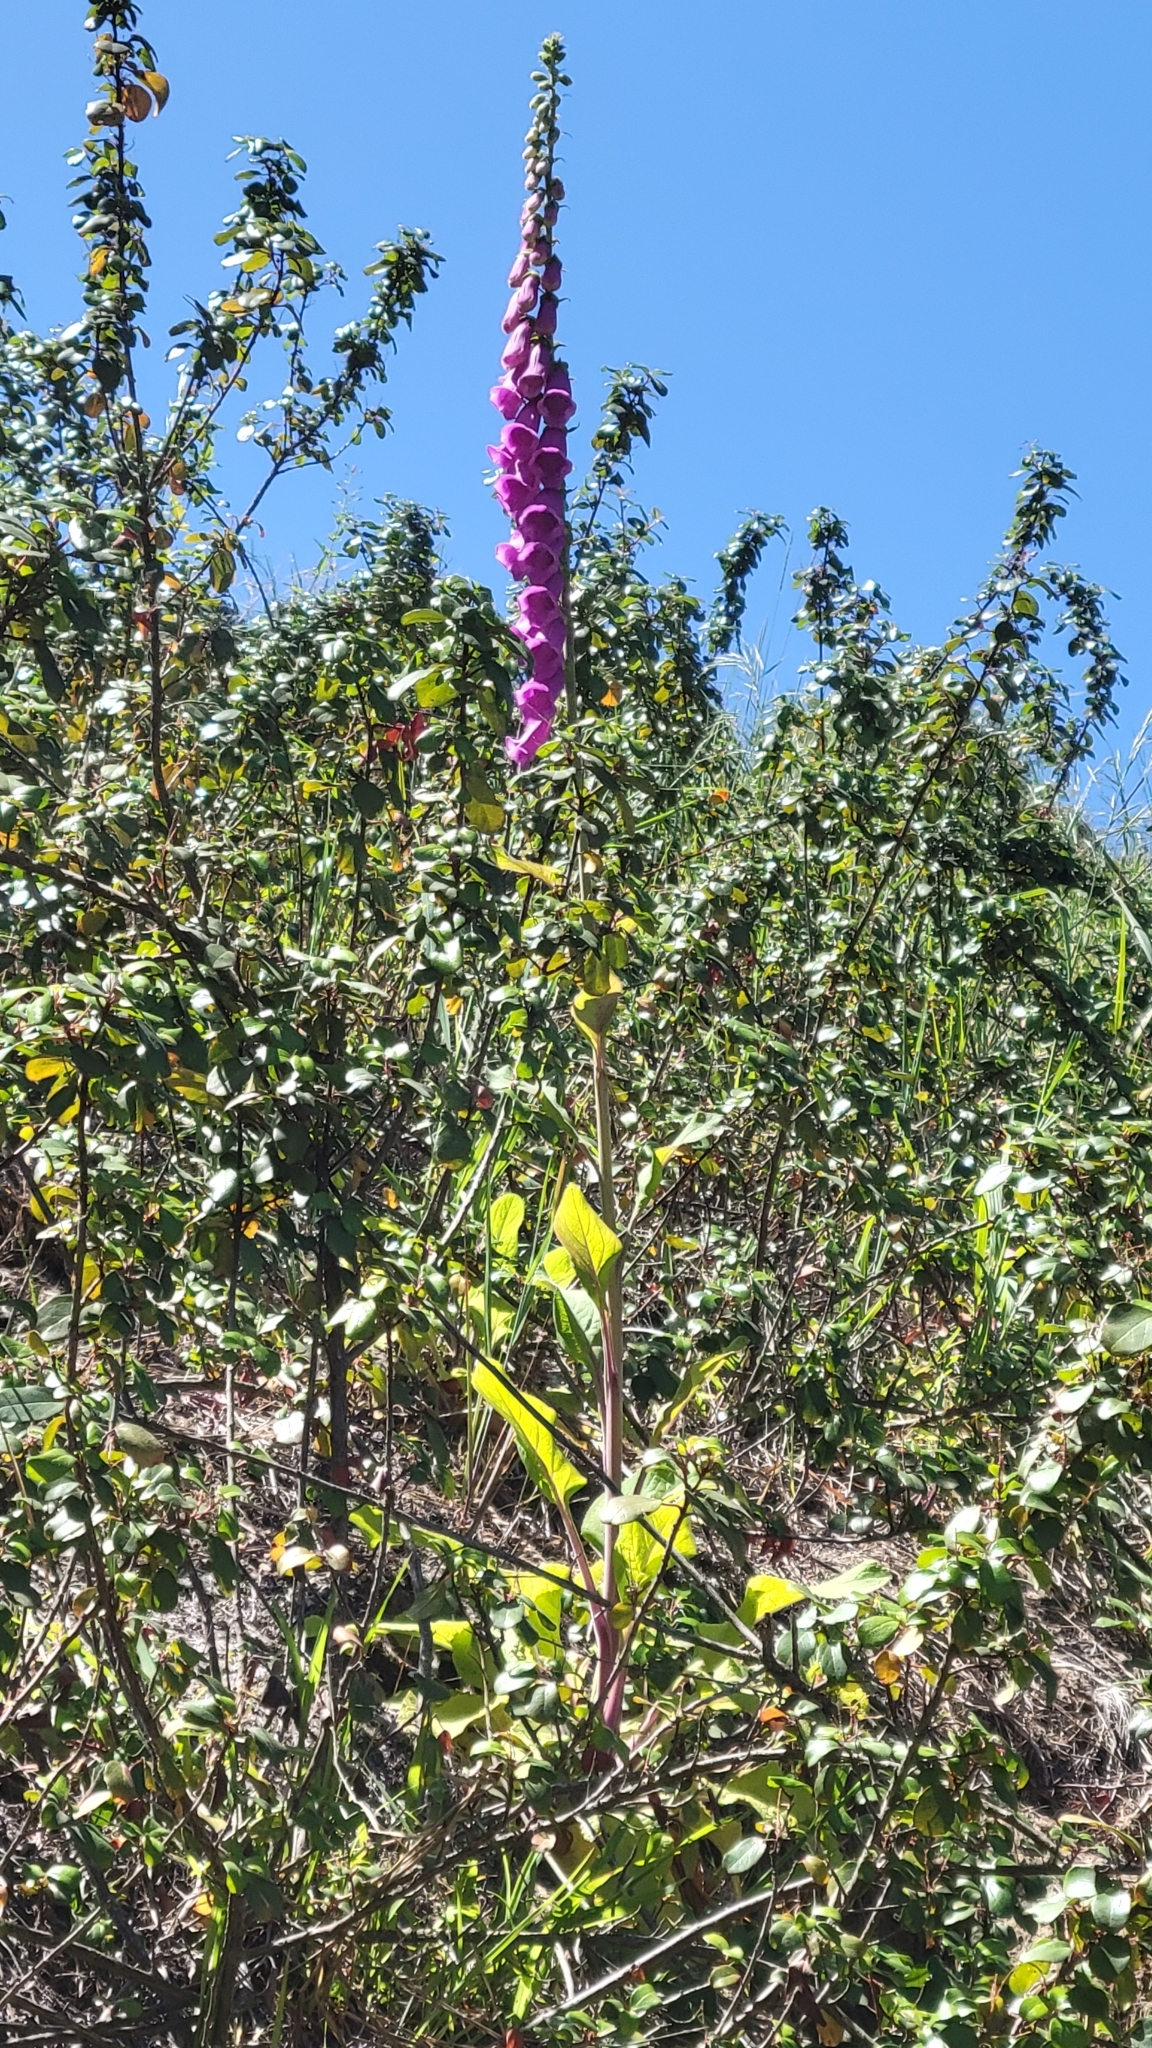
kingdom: Plantae
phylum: Tracheophyta
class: Magnoliopsida
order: Lamiales
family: Plantaginaceae
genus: Digitalis
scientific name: Digitalis purpurea
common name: Foxglove
